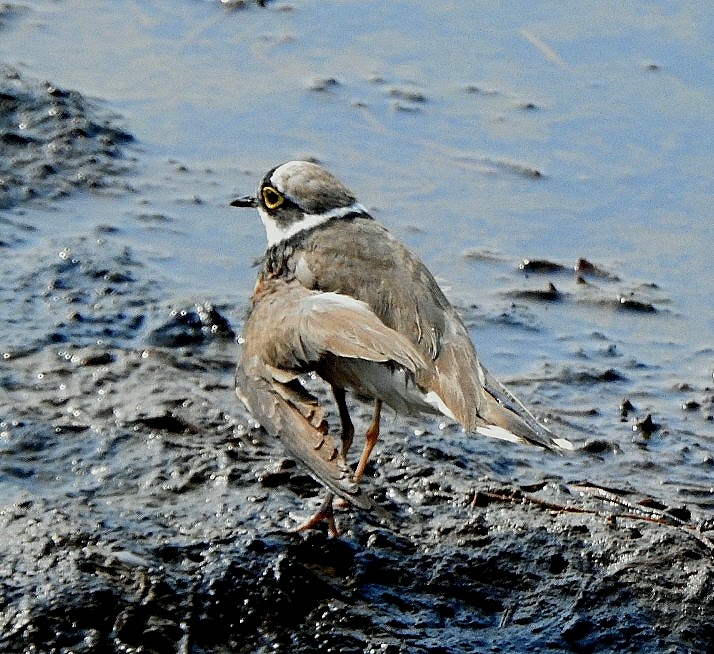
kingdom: Animalia
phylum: Chordata
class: Aves
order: Charadriiformes
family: Charadriidae
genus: Charadrius
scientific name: Charadrius dubius
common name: Little ringed plover
